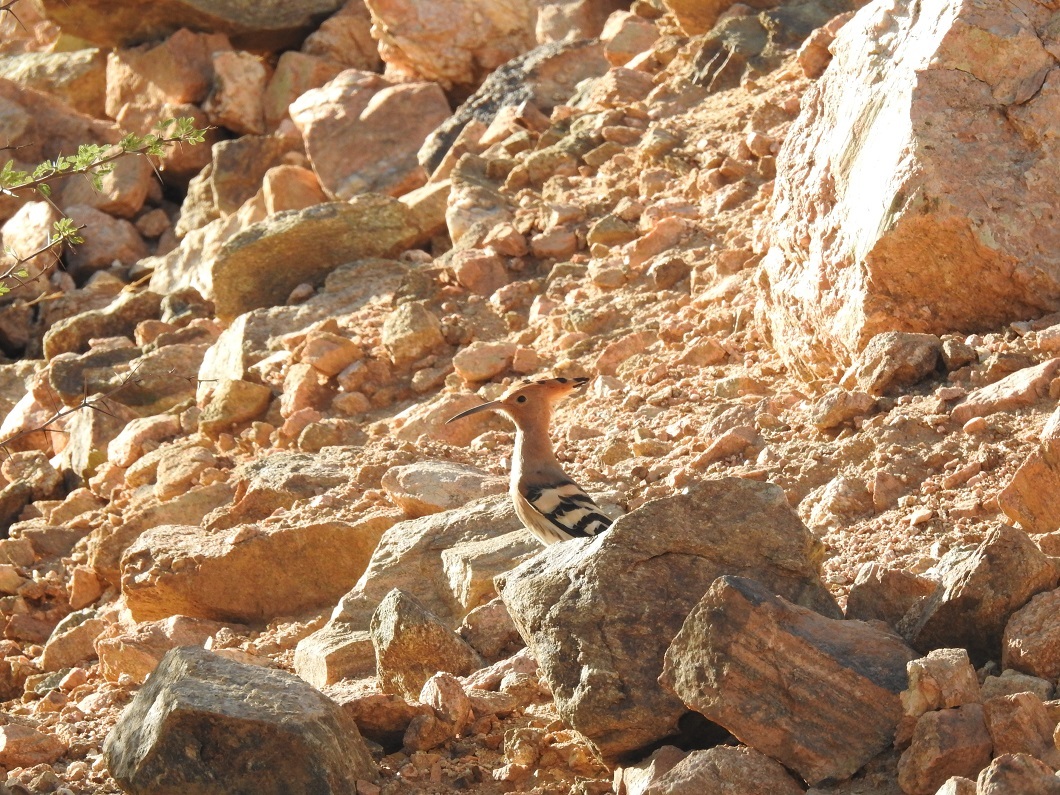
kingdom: Animalia
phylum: Chordata
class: Aves
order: Bucerotiformes
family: Upupidae
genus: Upupa
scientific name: Upupa epops
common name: Eurasian hoopoe
